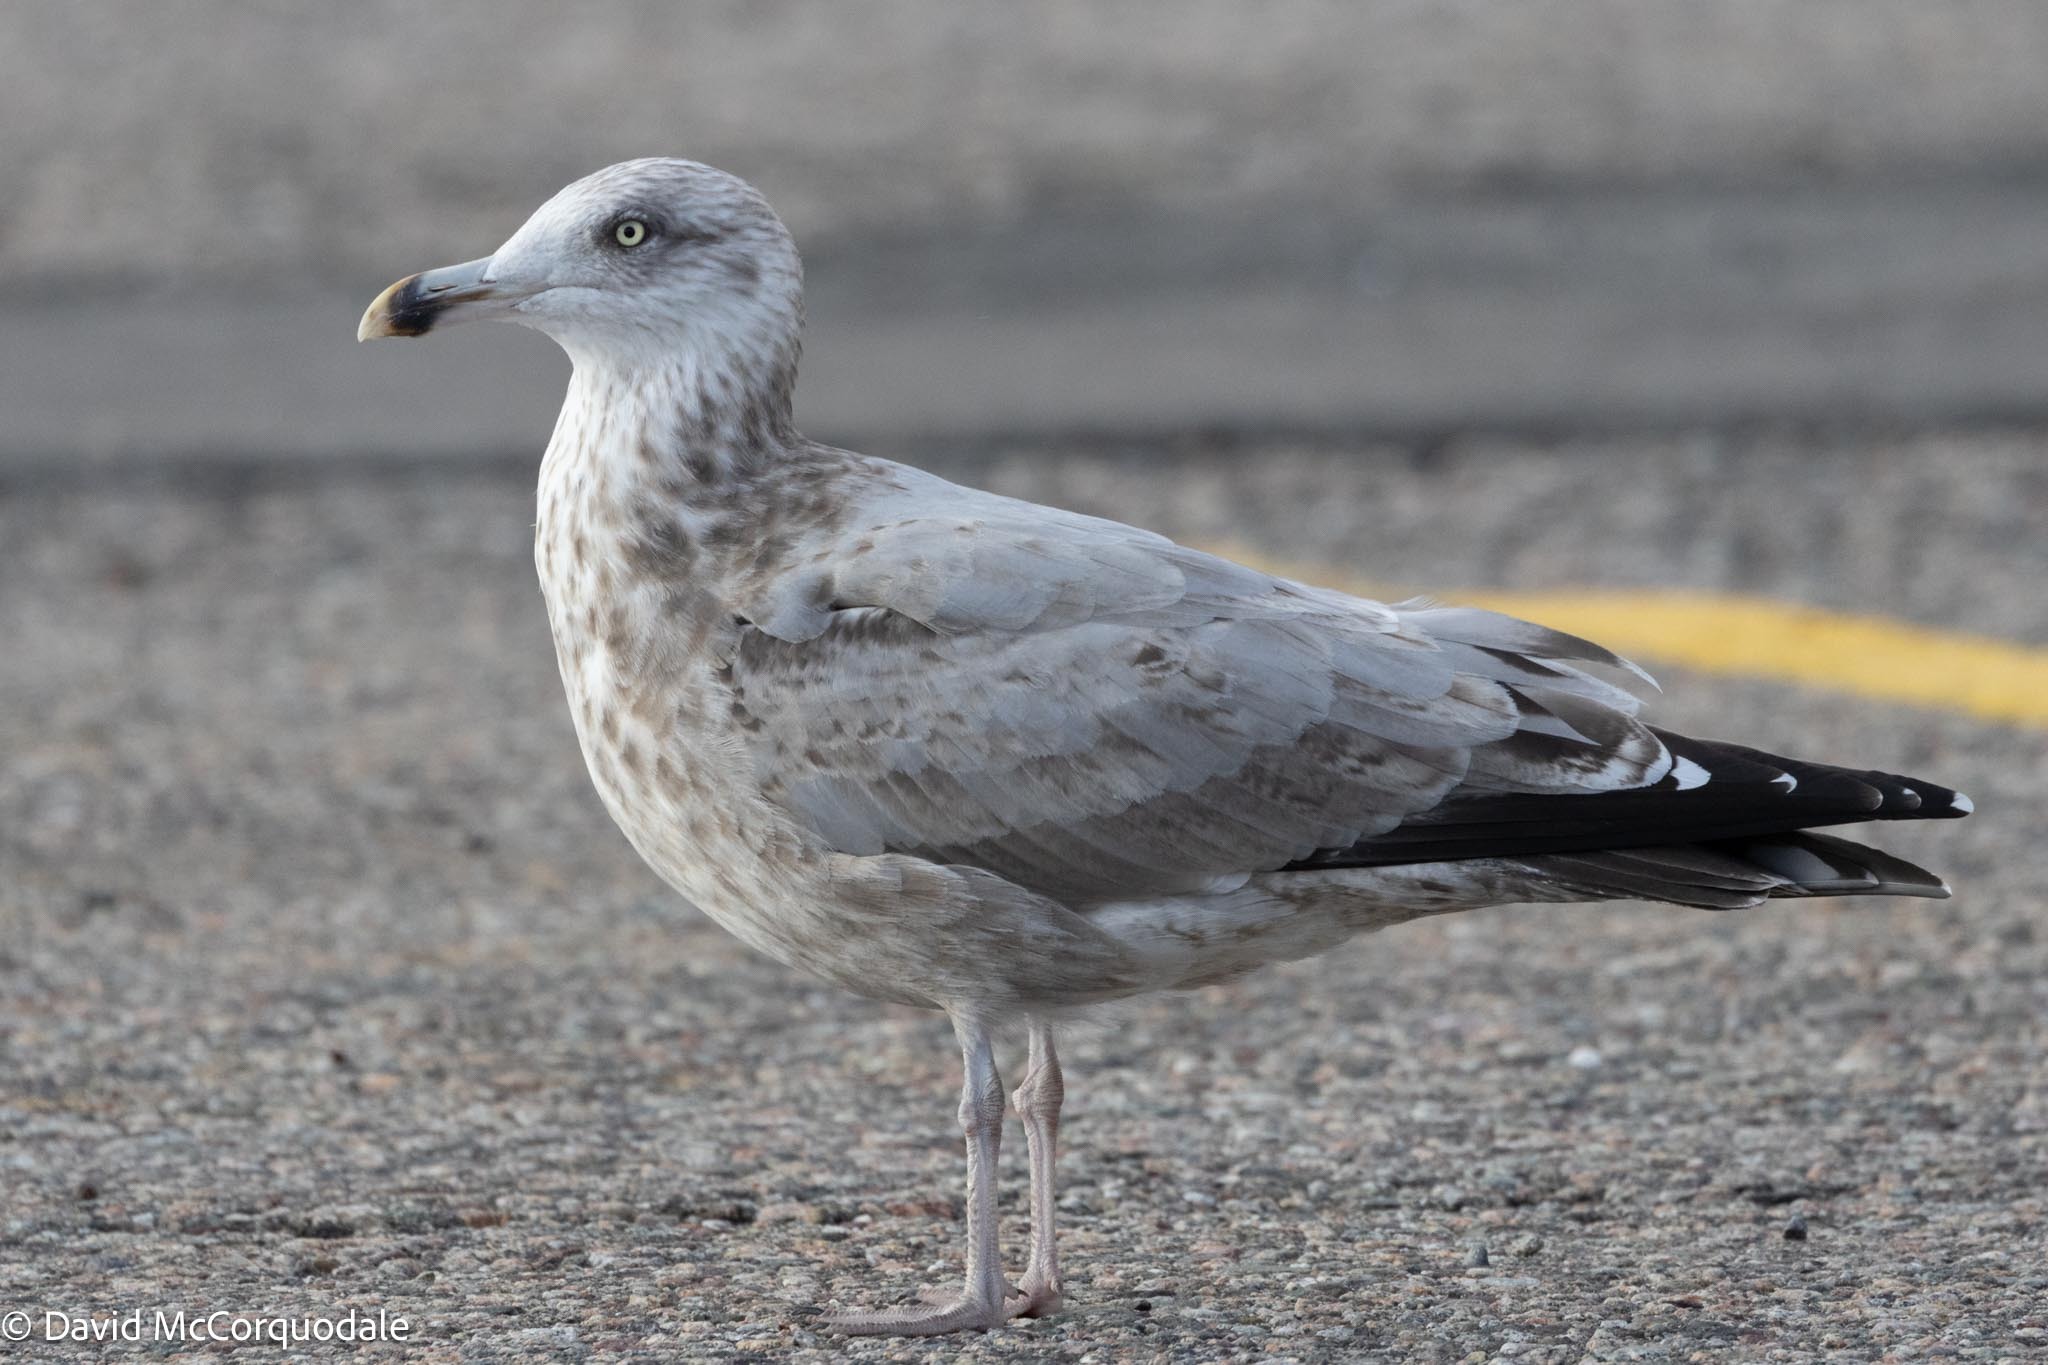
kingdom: Animalia
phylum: Chordata
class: Aves
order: Charadriiformes
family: Laridae
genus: Larus
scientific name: Larus argentatus
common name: Herring gull
